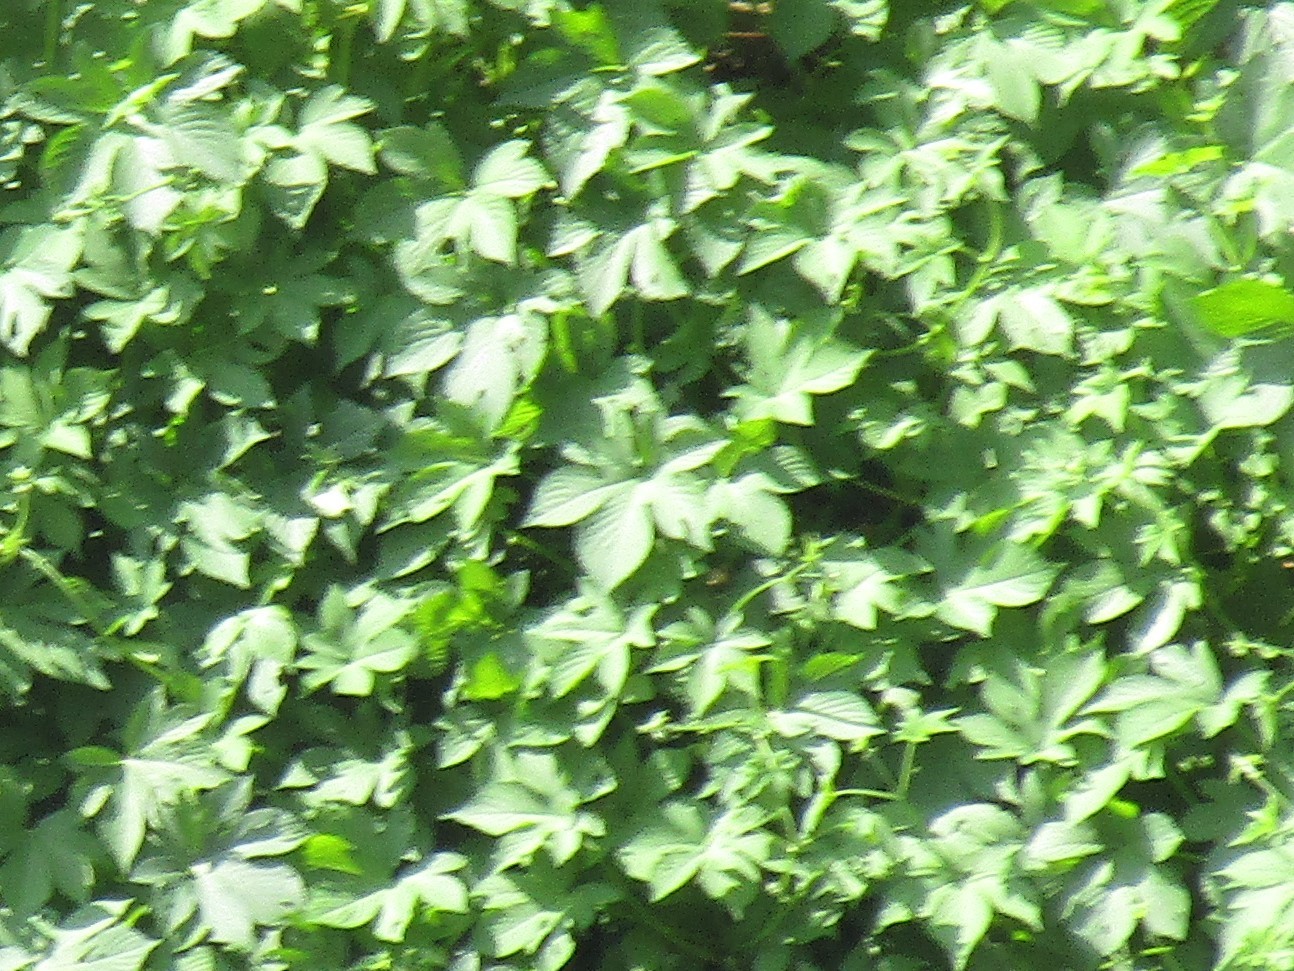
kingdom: Plantae
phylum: Tracheophyta
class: Magnoliopsida
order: Rosales
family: Cannabaceae
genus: Humulus
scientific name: Humulus scandens
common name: Japanese hop
